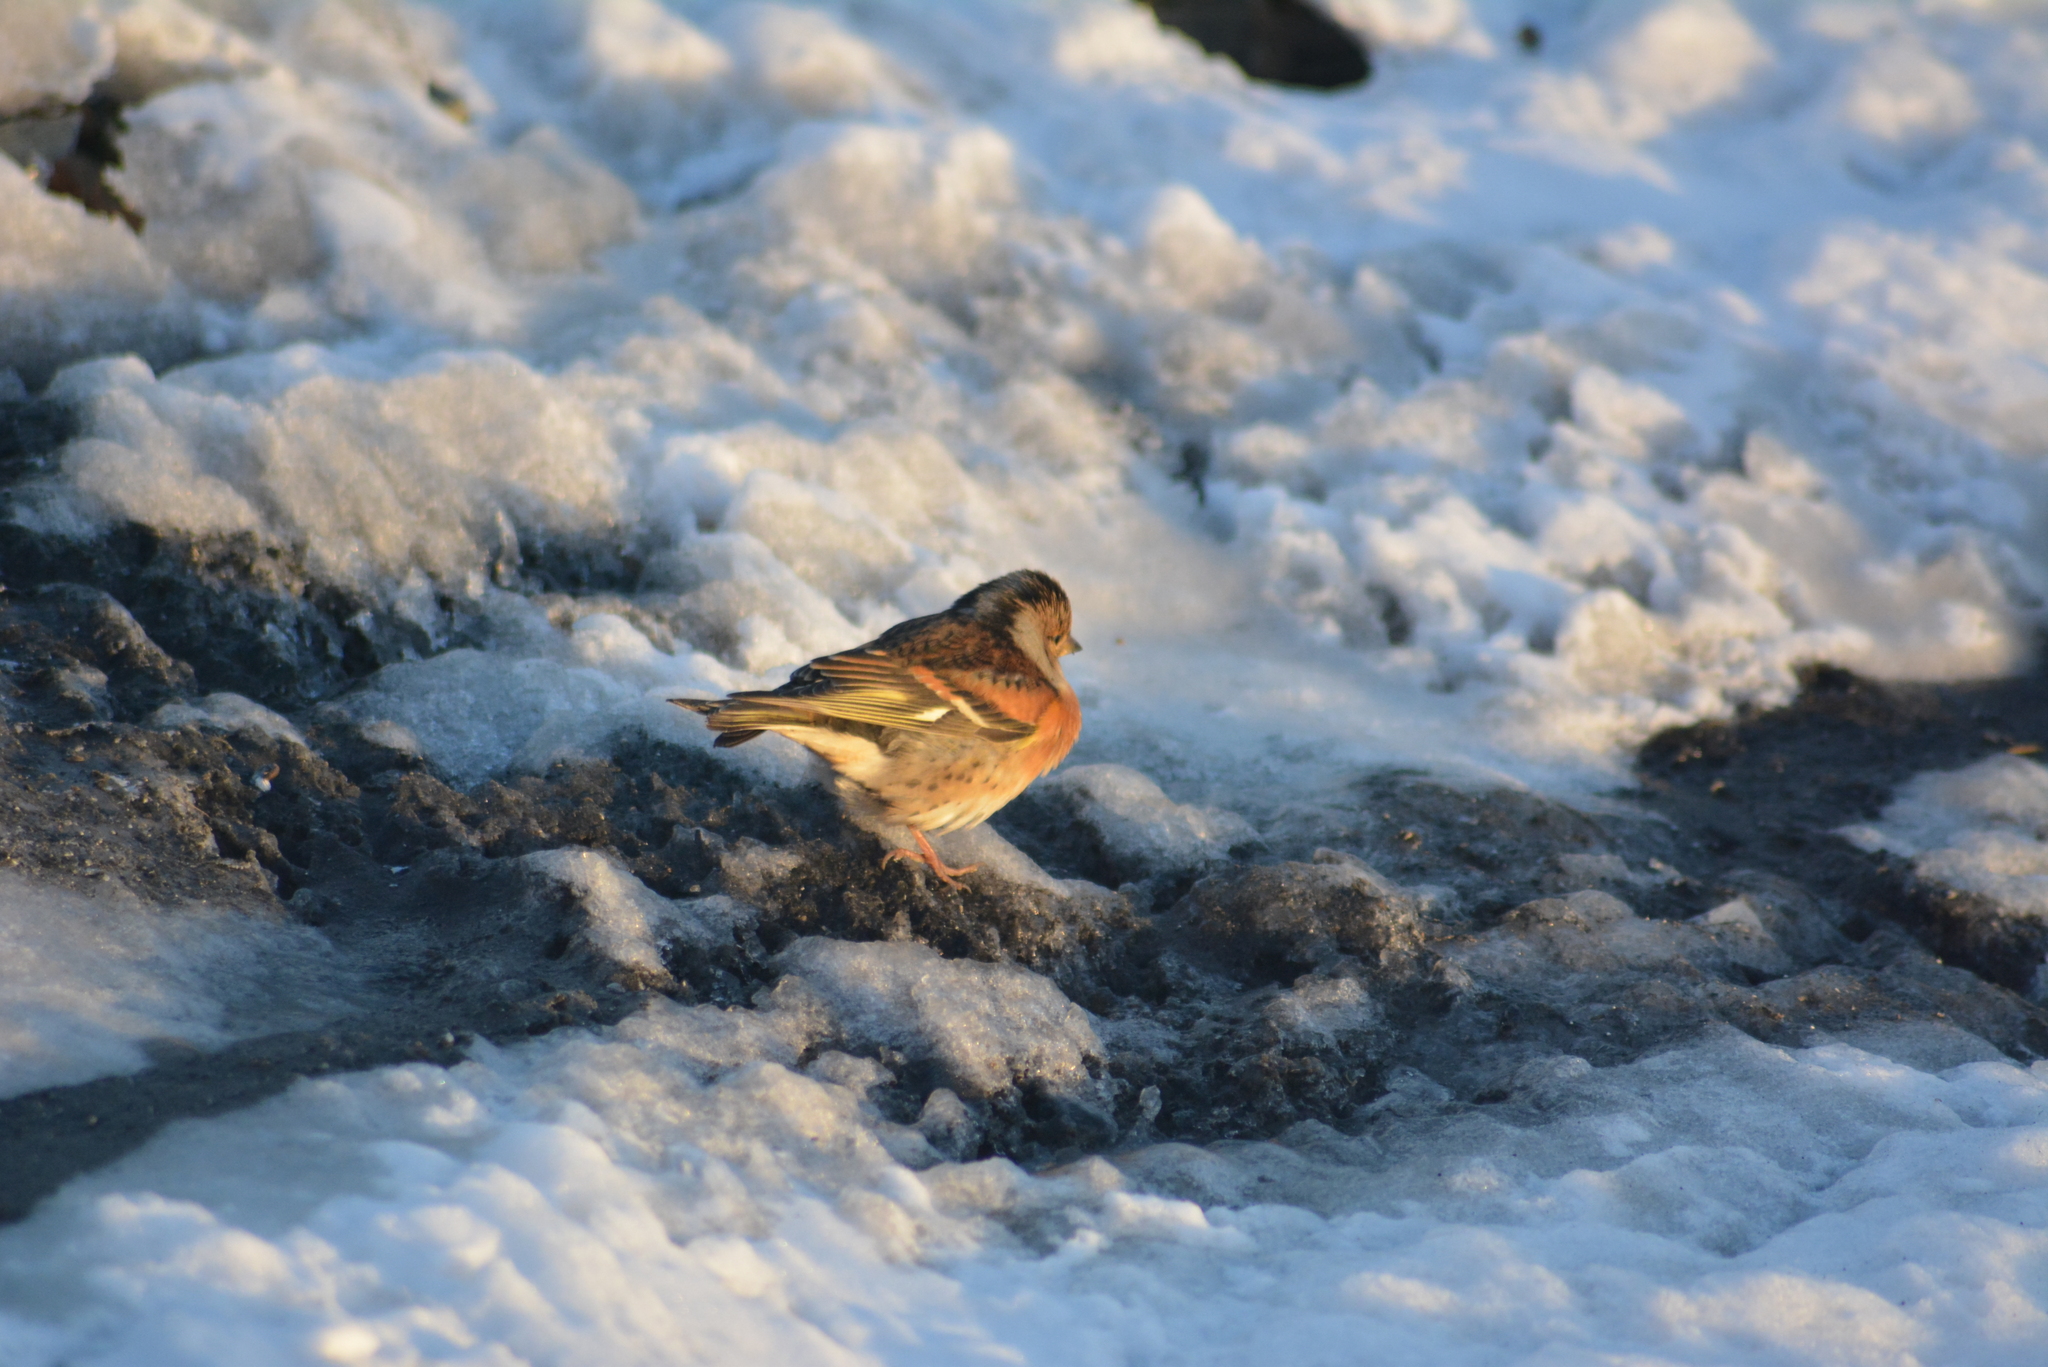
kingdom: Animalia
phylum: Chordata
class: Aves
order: Passeriformes
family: Fringillidae
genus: Fringilla
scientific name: Fringilla montifringilla
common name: Brambling
